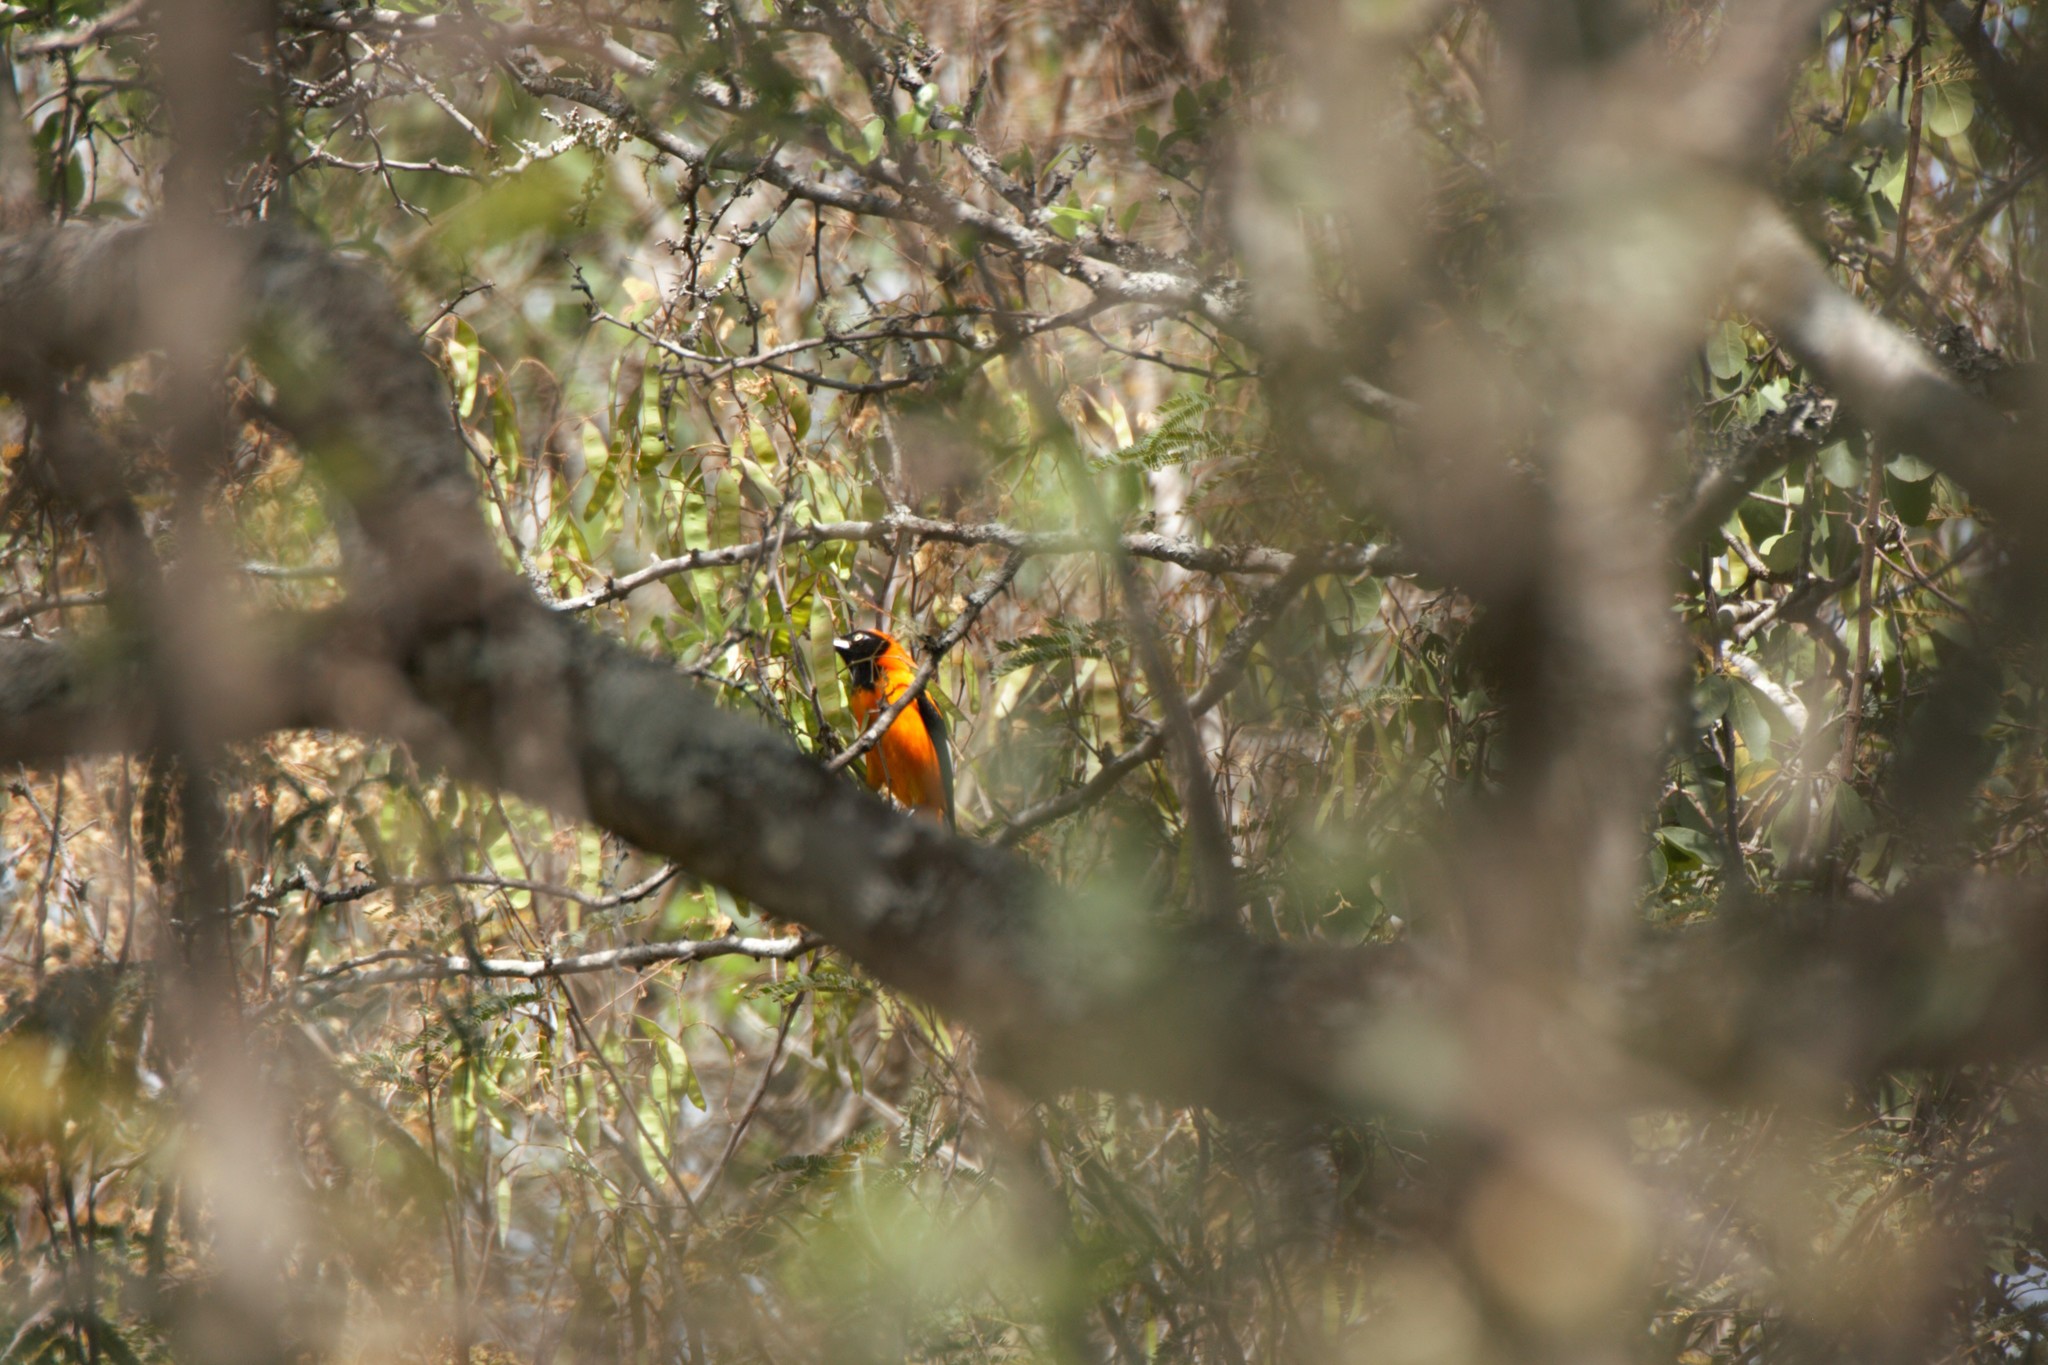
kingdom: Animalia
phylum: Chordata
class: Aves
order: Passeriformes
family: Icteridae
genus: Icterus
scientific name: Icterus icterus
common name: Venezuelan troupial
